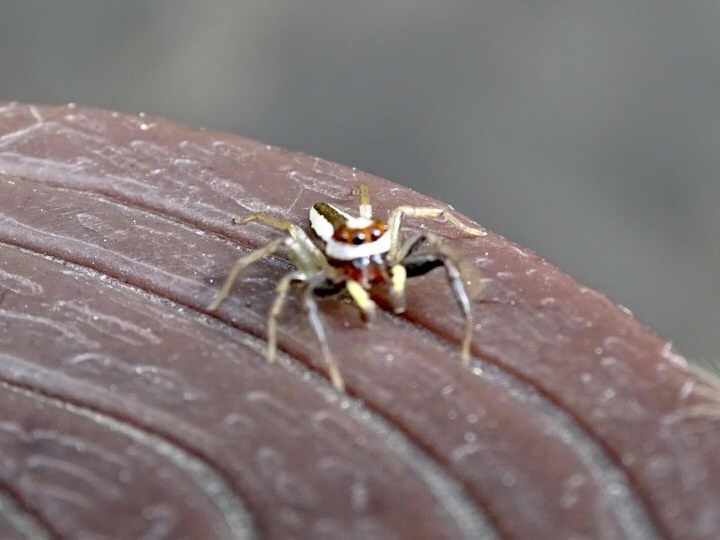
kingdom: Animalia
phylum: Arthropoda
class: Arachnida
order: Araneae
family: Salticidae
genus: Epocilla
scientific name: Epocilla blairei
